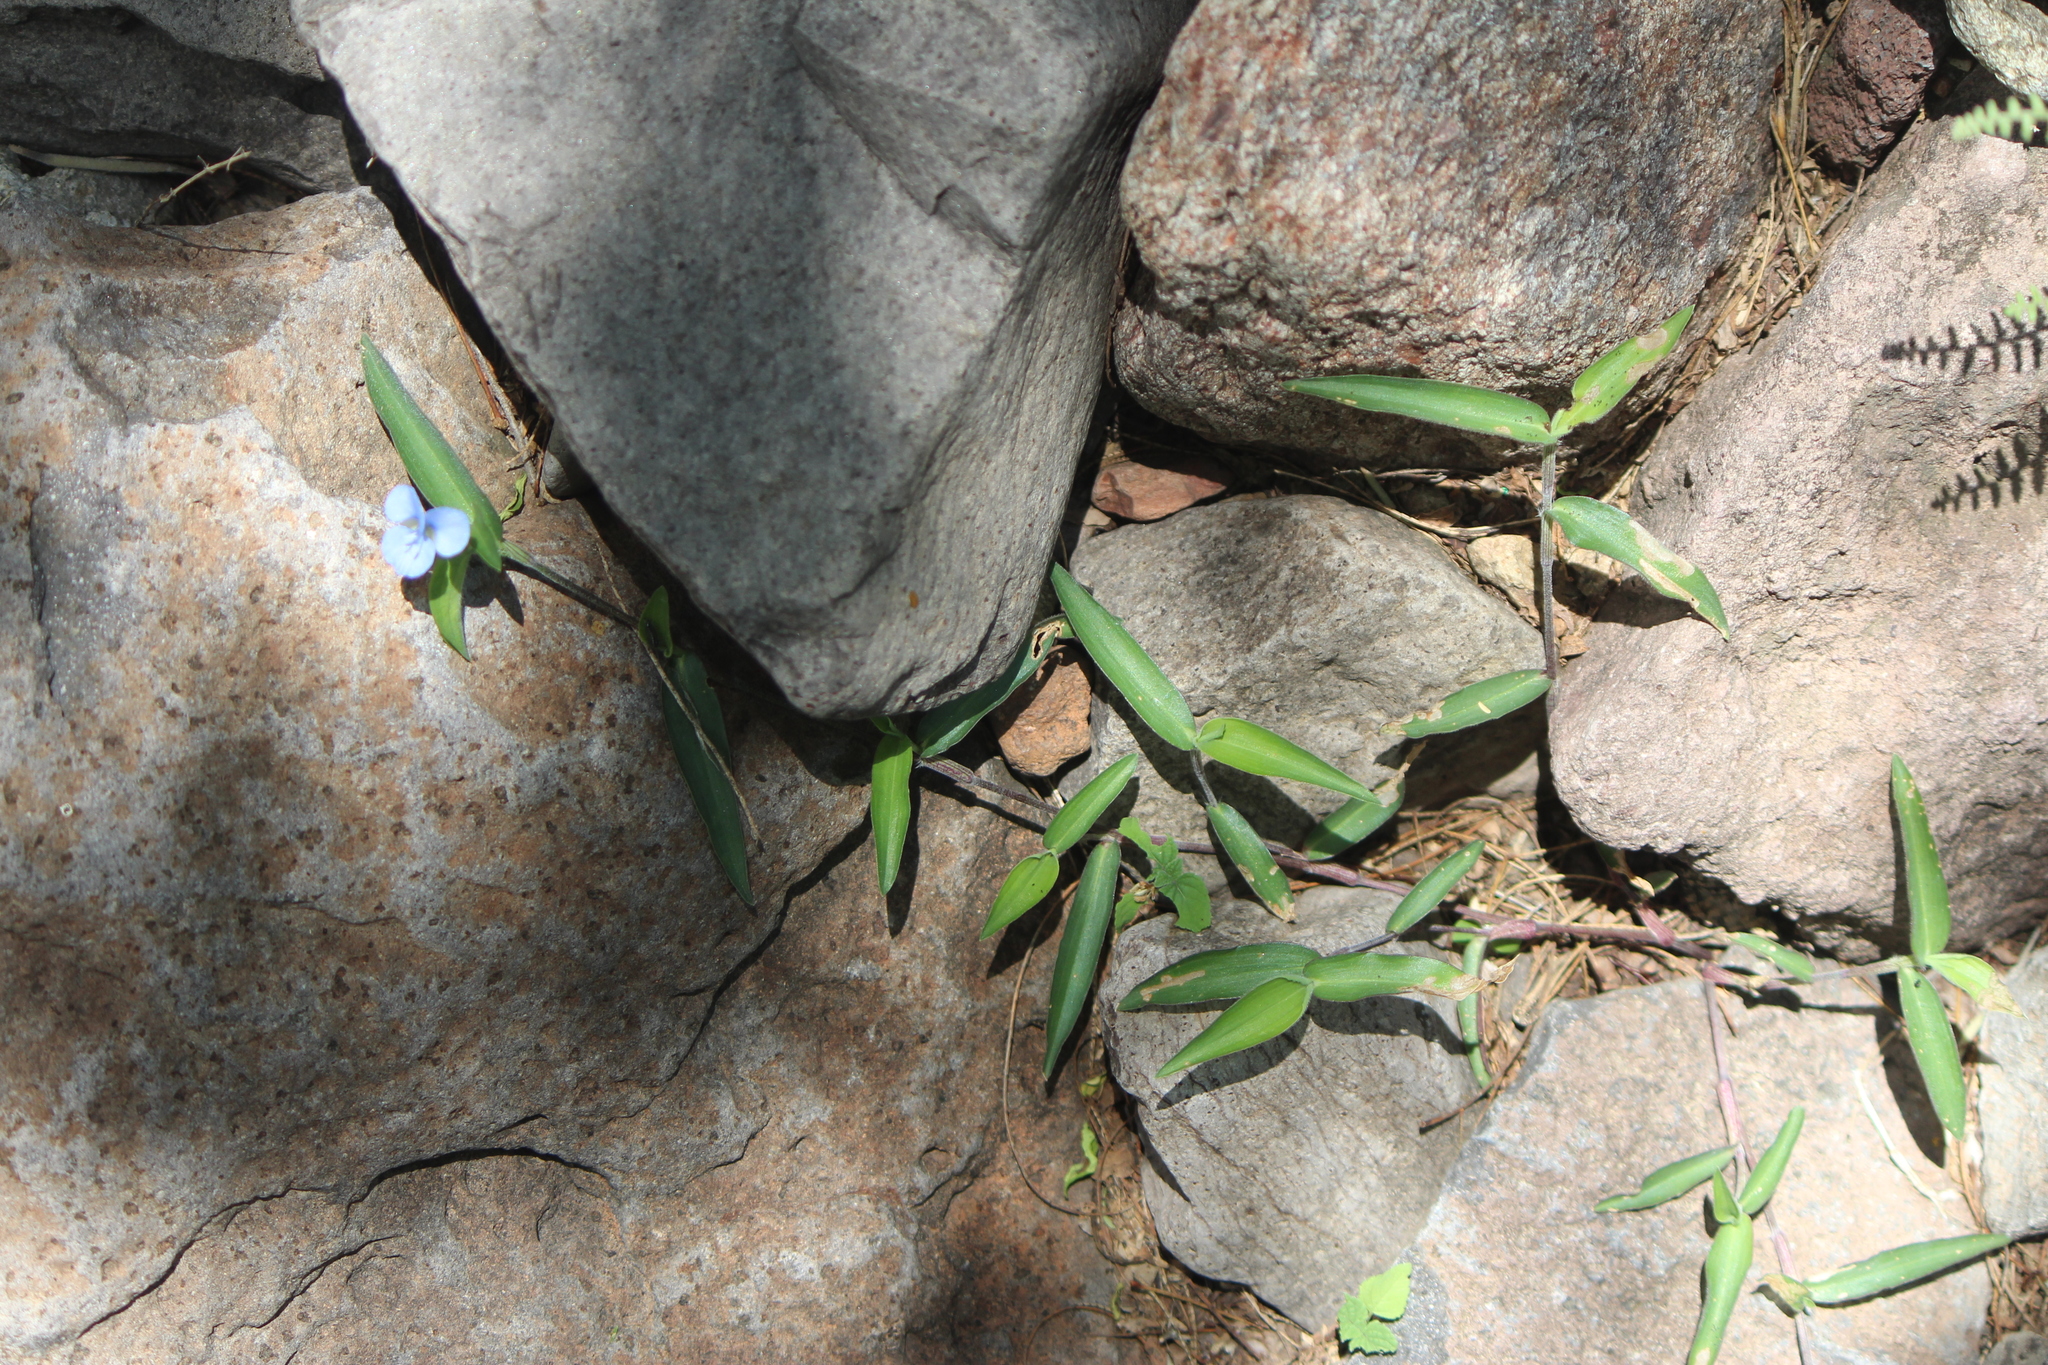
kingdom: Plantae
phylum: Tracheophyta
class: Liliopsida
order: Commelinales
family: Commelinaceae
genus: Commelina
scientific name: Commelina diffusa
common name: Climbing dayflower
